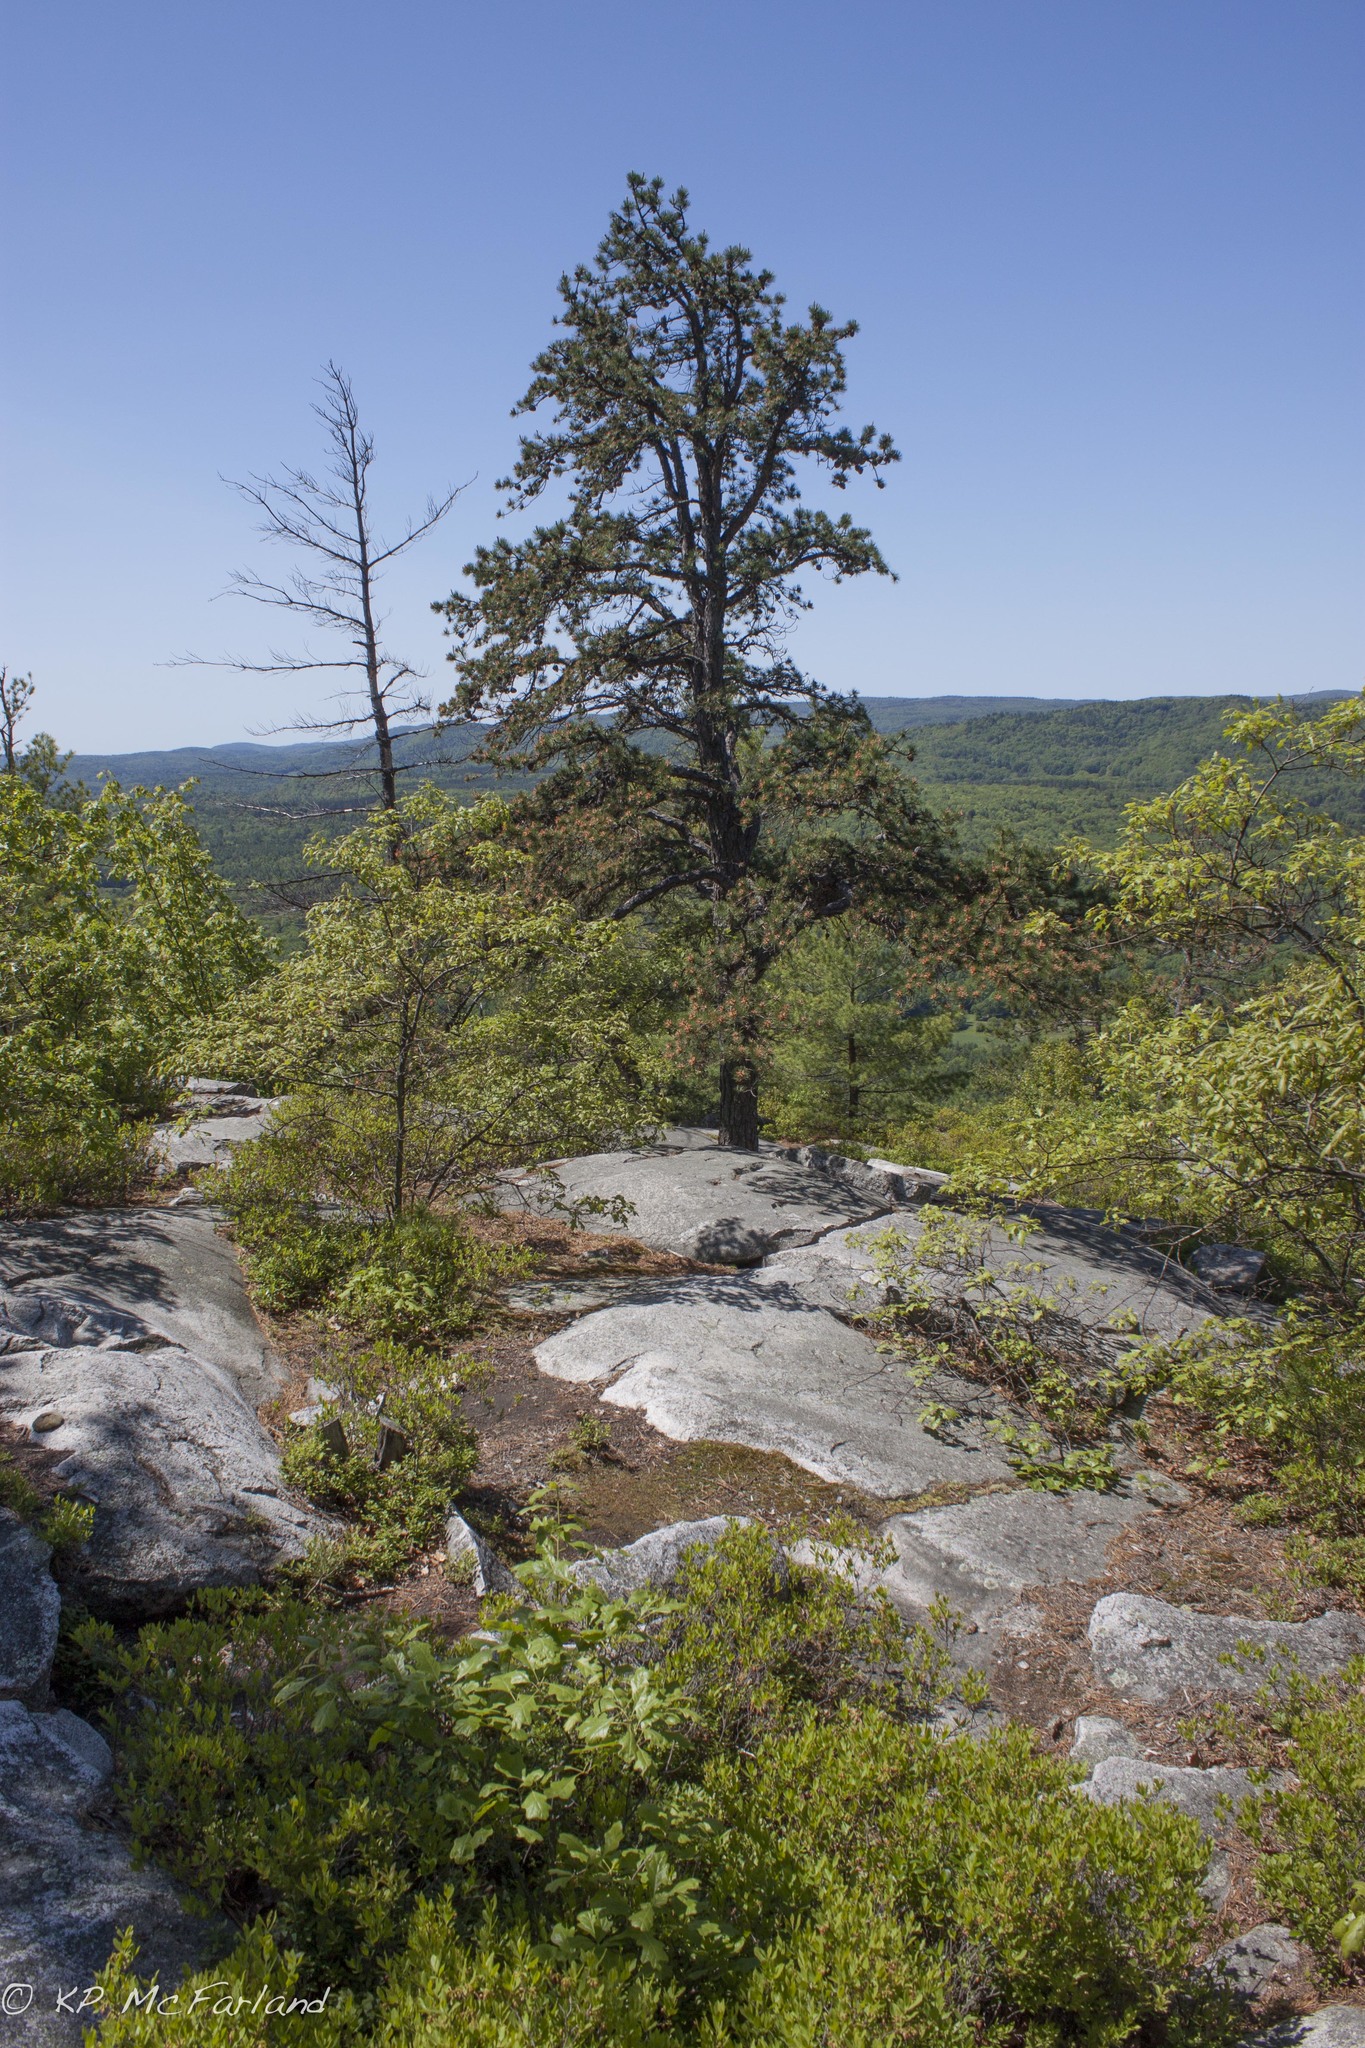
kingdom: Plantae
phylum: Tracheophyta
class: Pinopsida
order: Pinales
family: Pinaceae
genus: Pinus
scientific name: Pinus rigida
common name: Pitch pine
